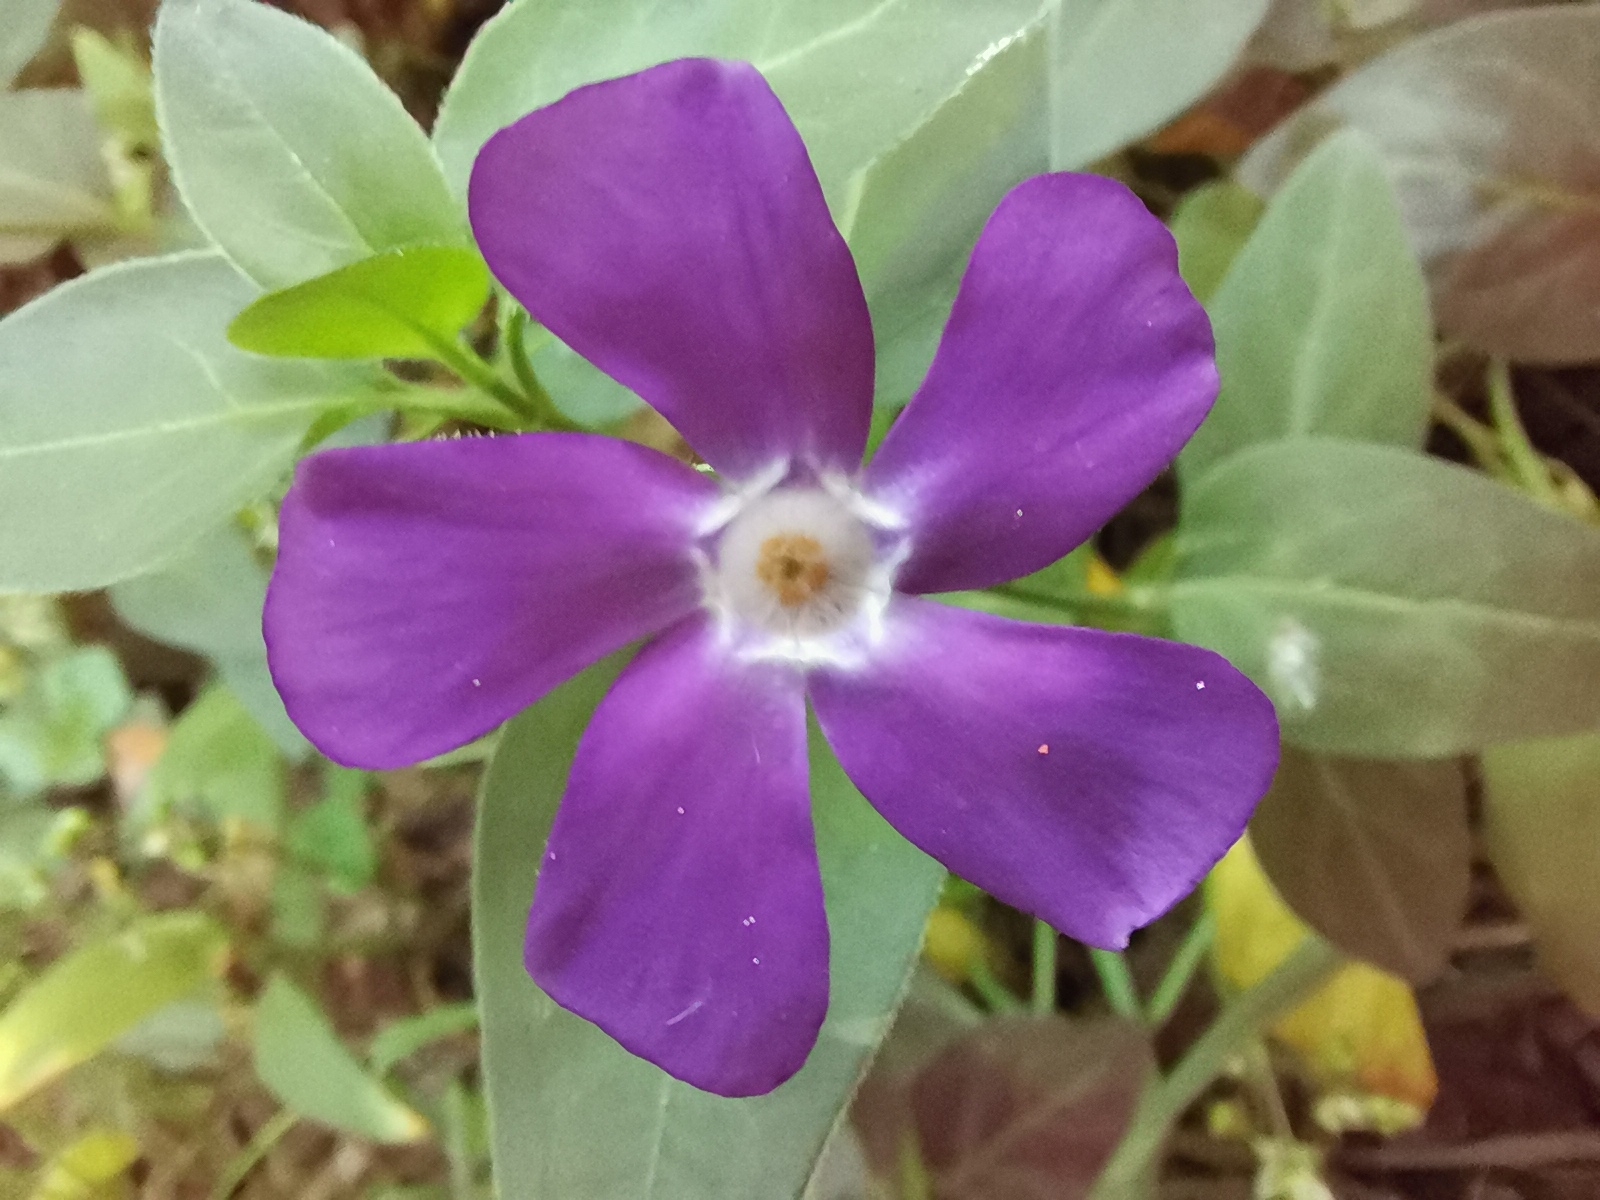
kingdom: Plantae
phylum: Tracheophyta
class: Magnoliopsida
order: Gentianales
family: Apocynaceae
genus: Vinca
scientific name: Vinca major
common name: Greater periwinkle
